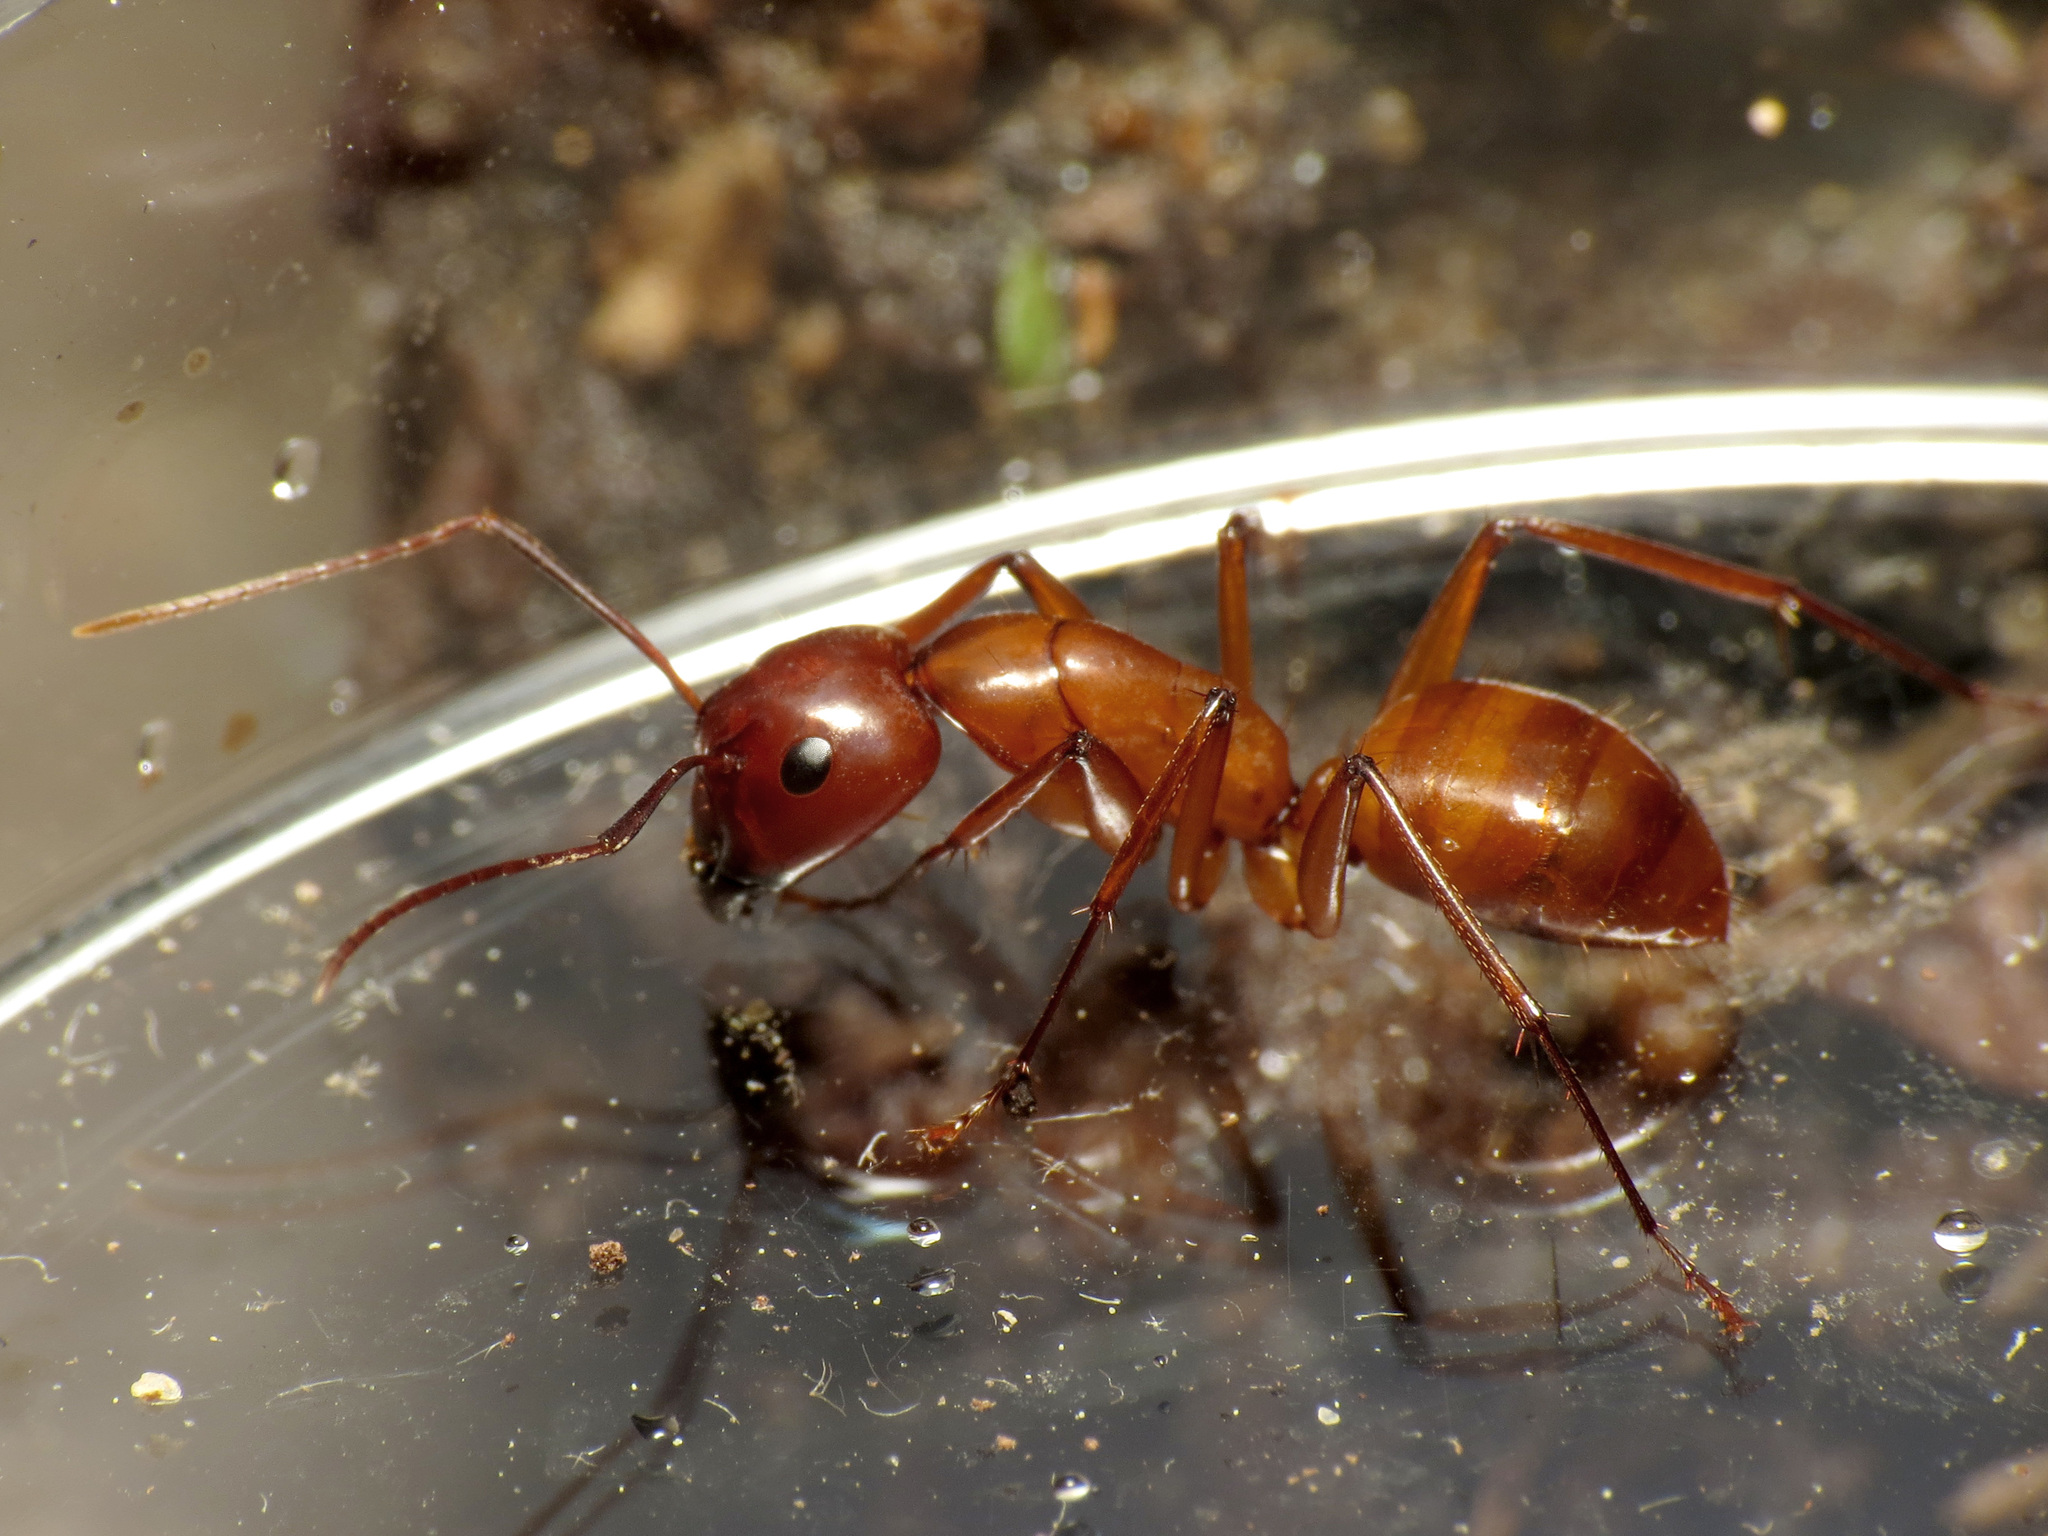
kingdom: Animalia
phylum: Arthropoda
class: Insecta
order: Hymenoptera
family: Formicidae
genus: Camponotus
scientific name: Camponotus castaneus
